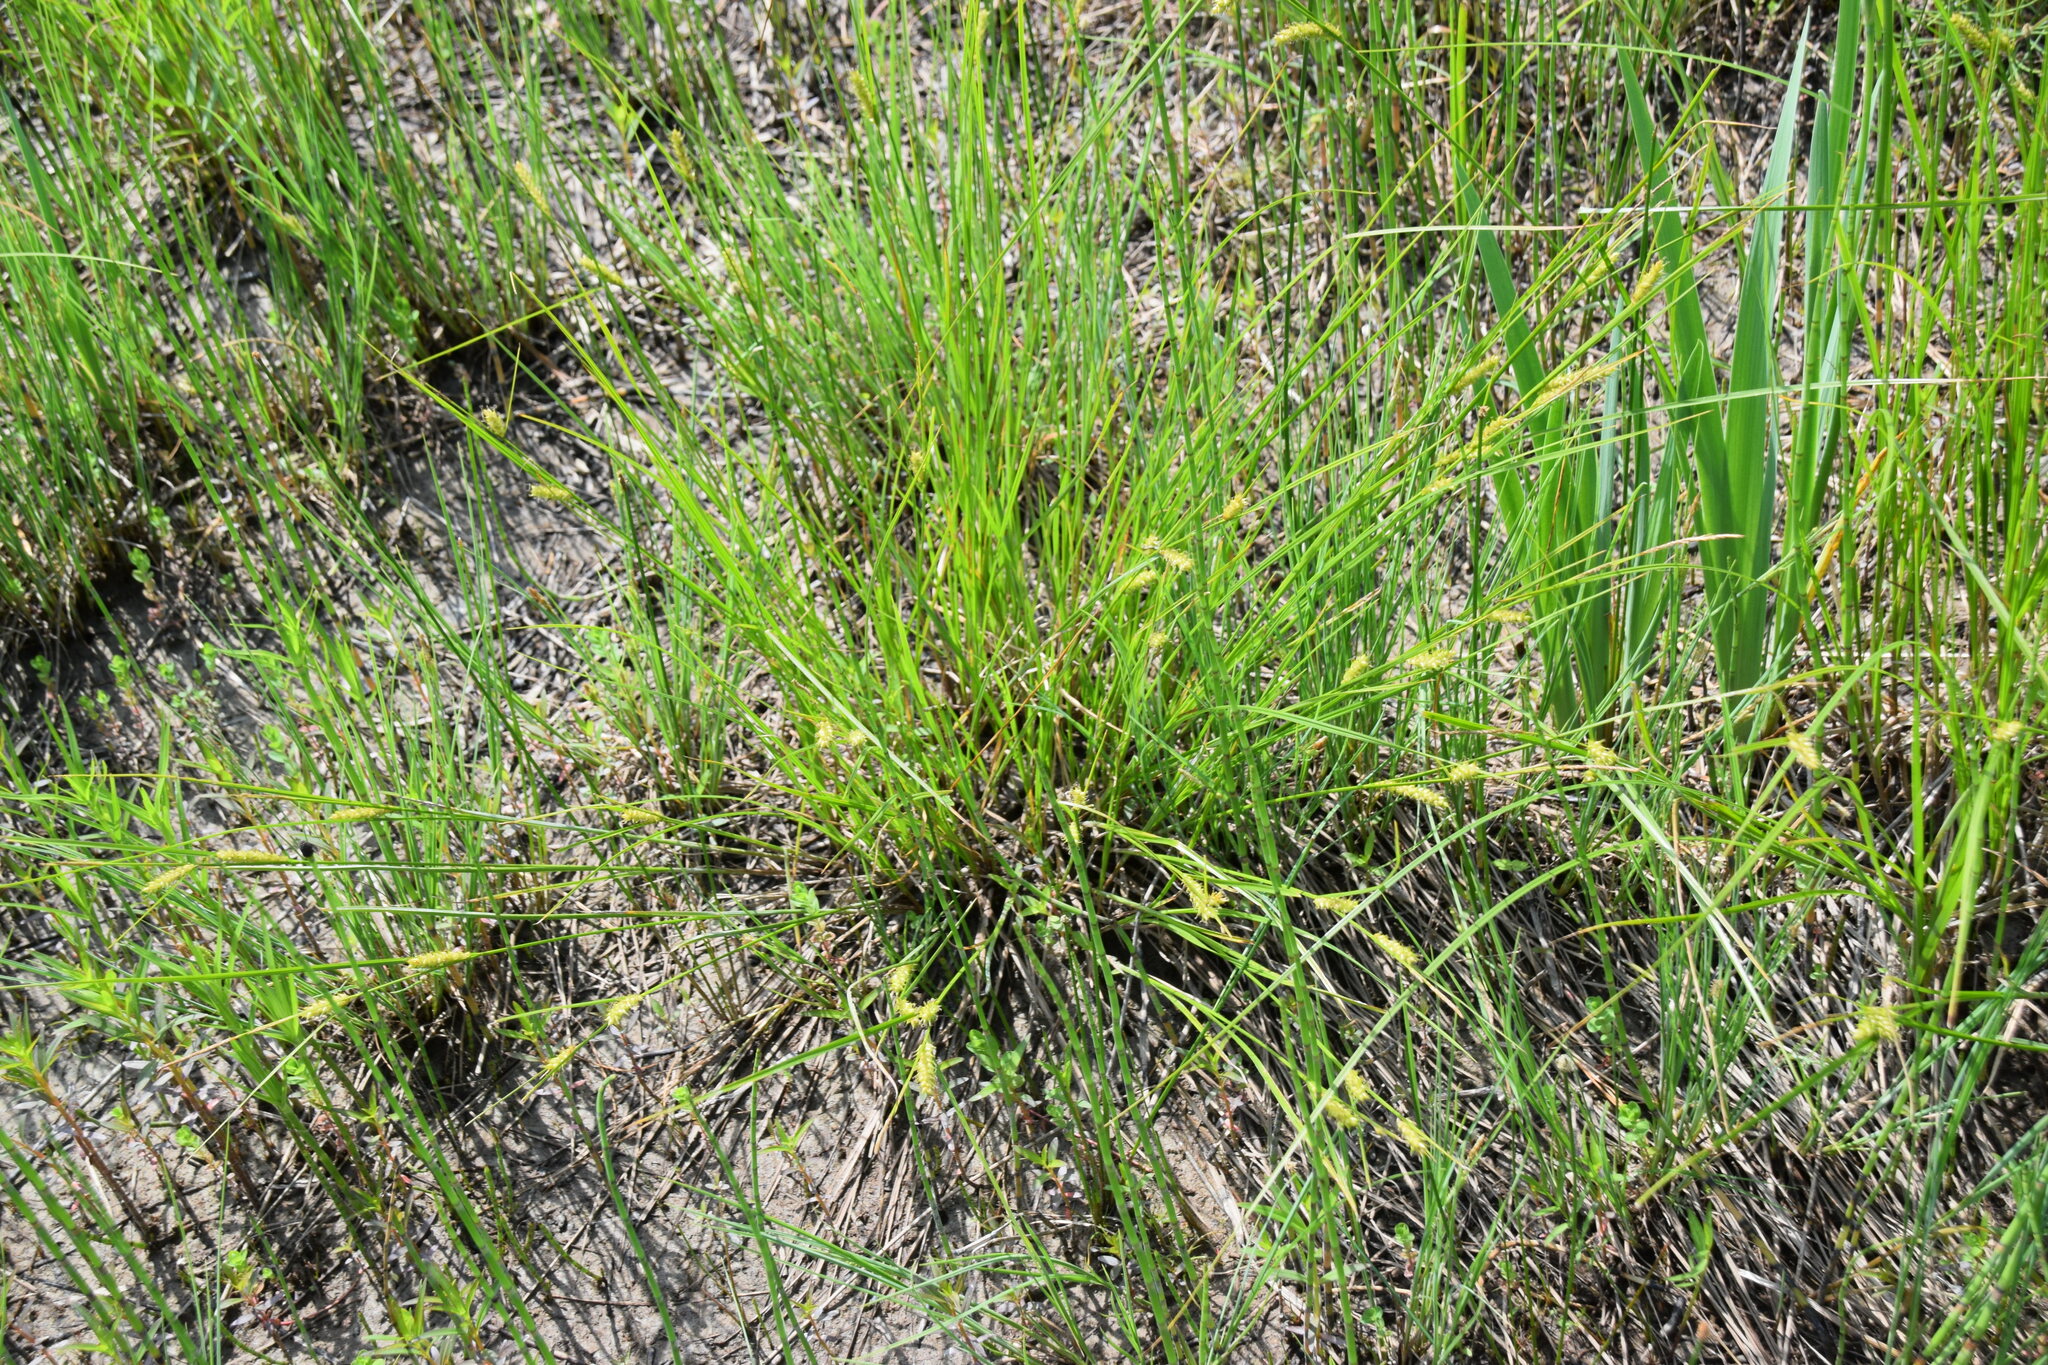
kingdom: Plantae
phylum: Tracheophyta
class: Liliopsida
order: Poales
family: Cyperaceae
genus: Carex
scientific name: Carex vesicaria
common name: Bladder-sedge
